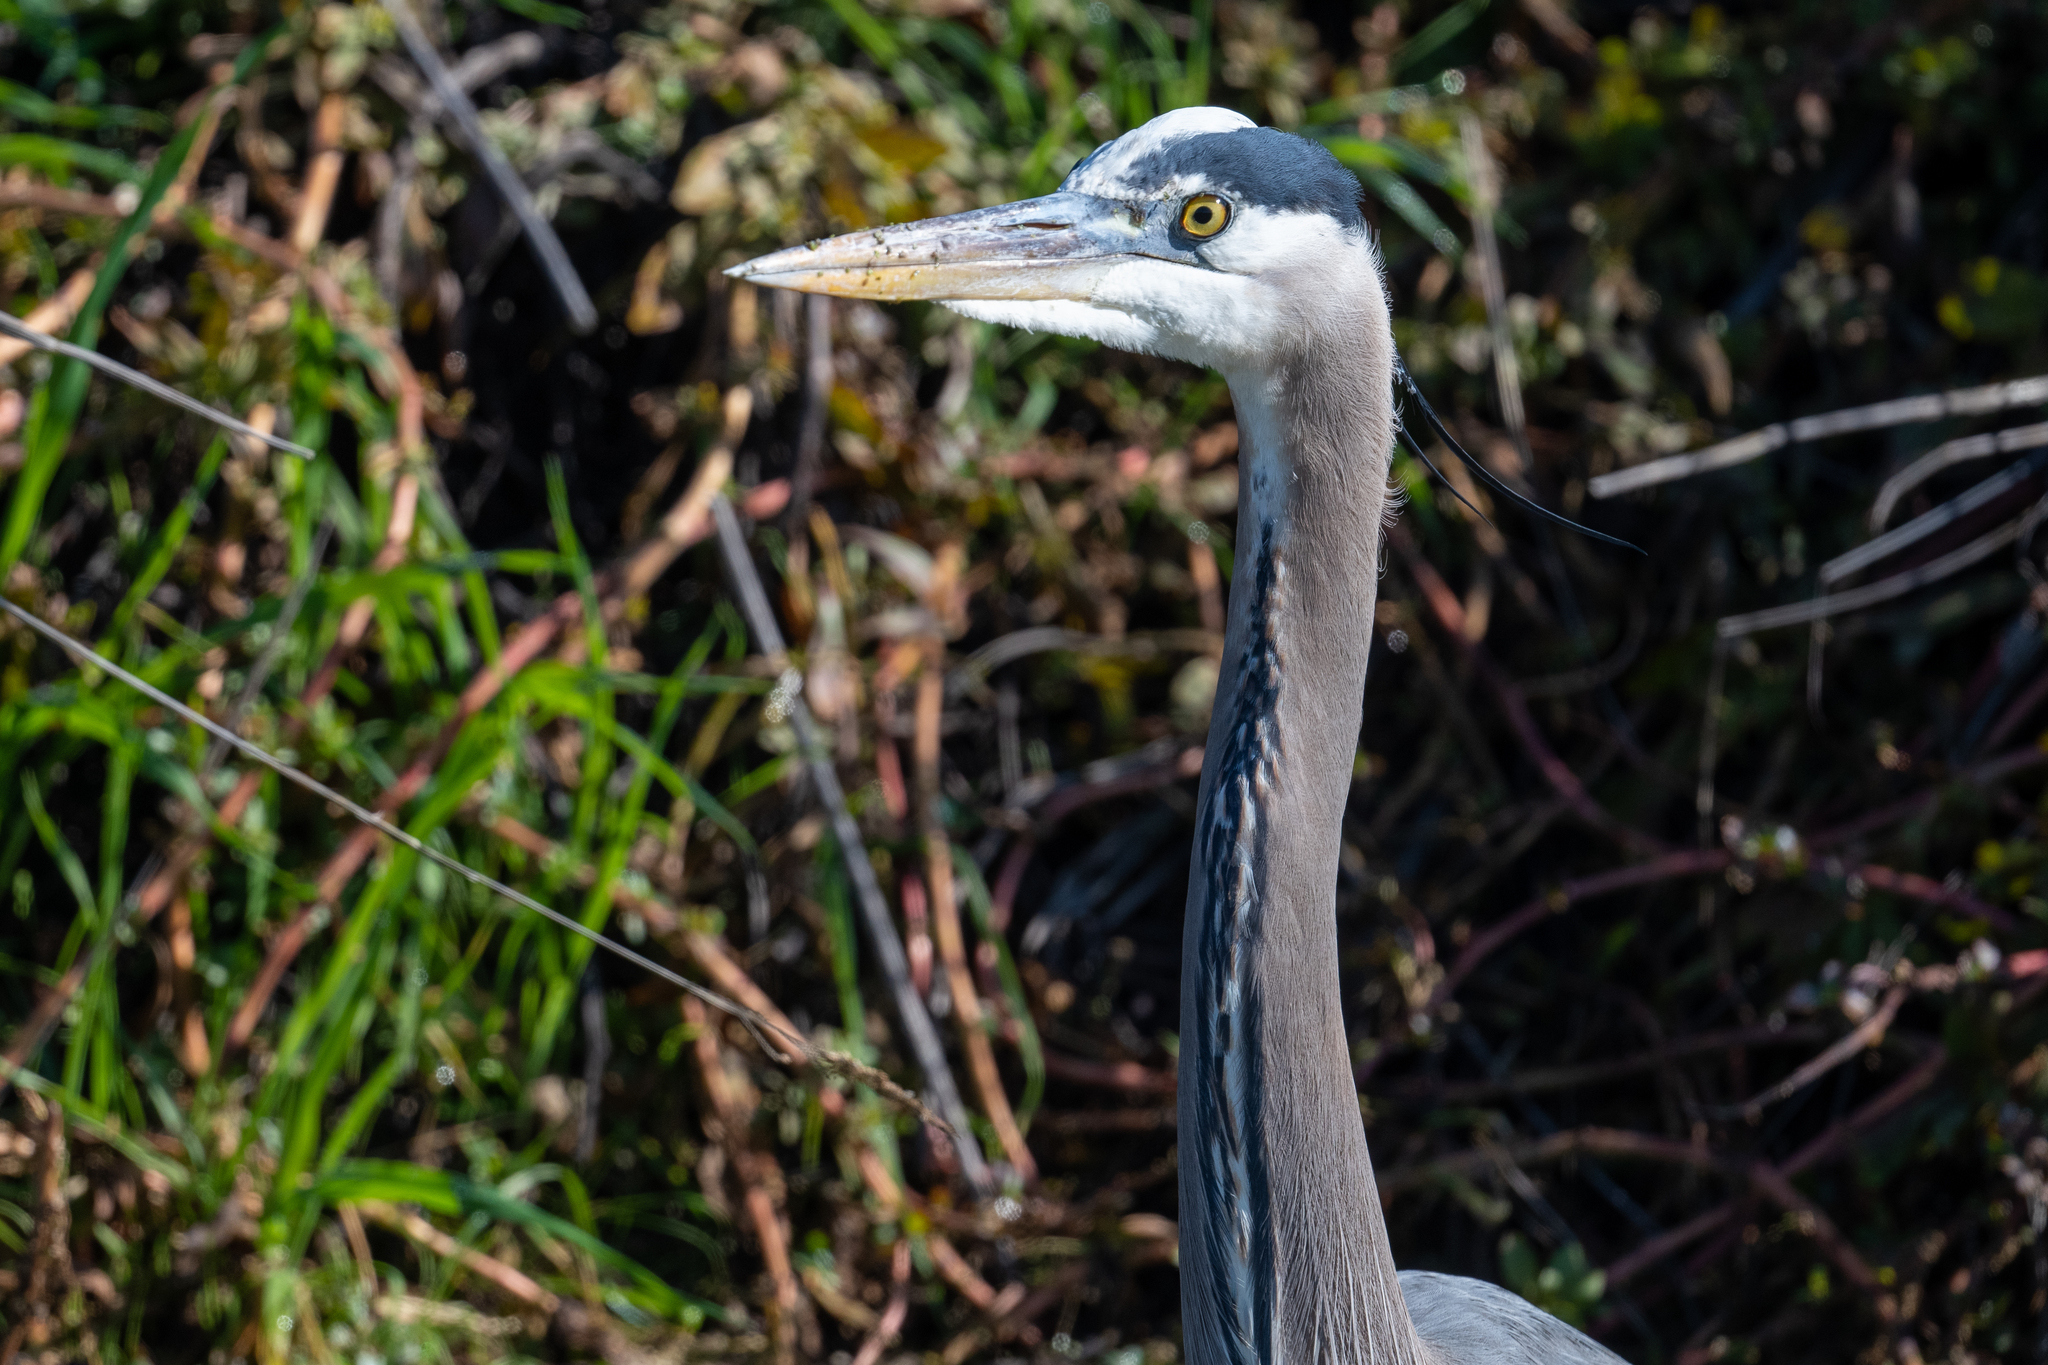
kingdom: Animalia
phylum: Chordata
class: Aves
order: Pelecaniformes
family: Ardeidae
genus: Ardea
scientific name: Ardea herodias
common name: Great blue heron
